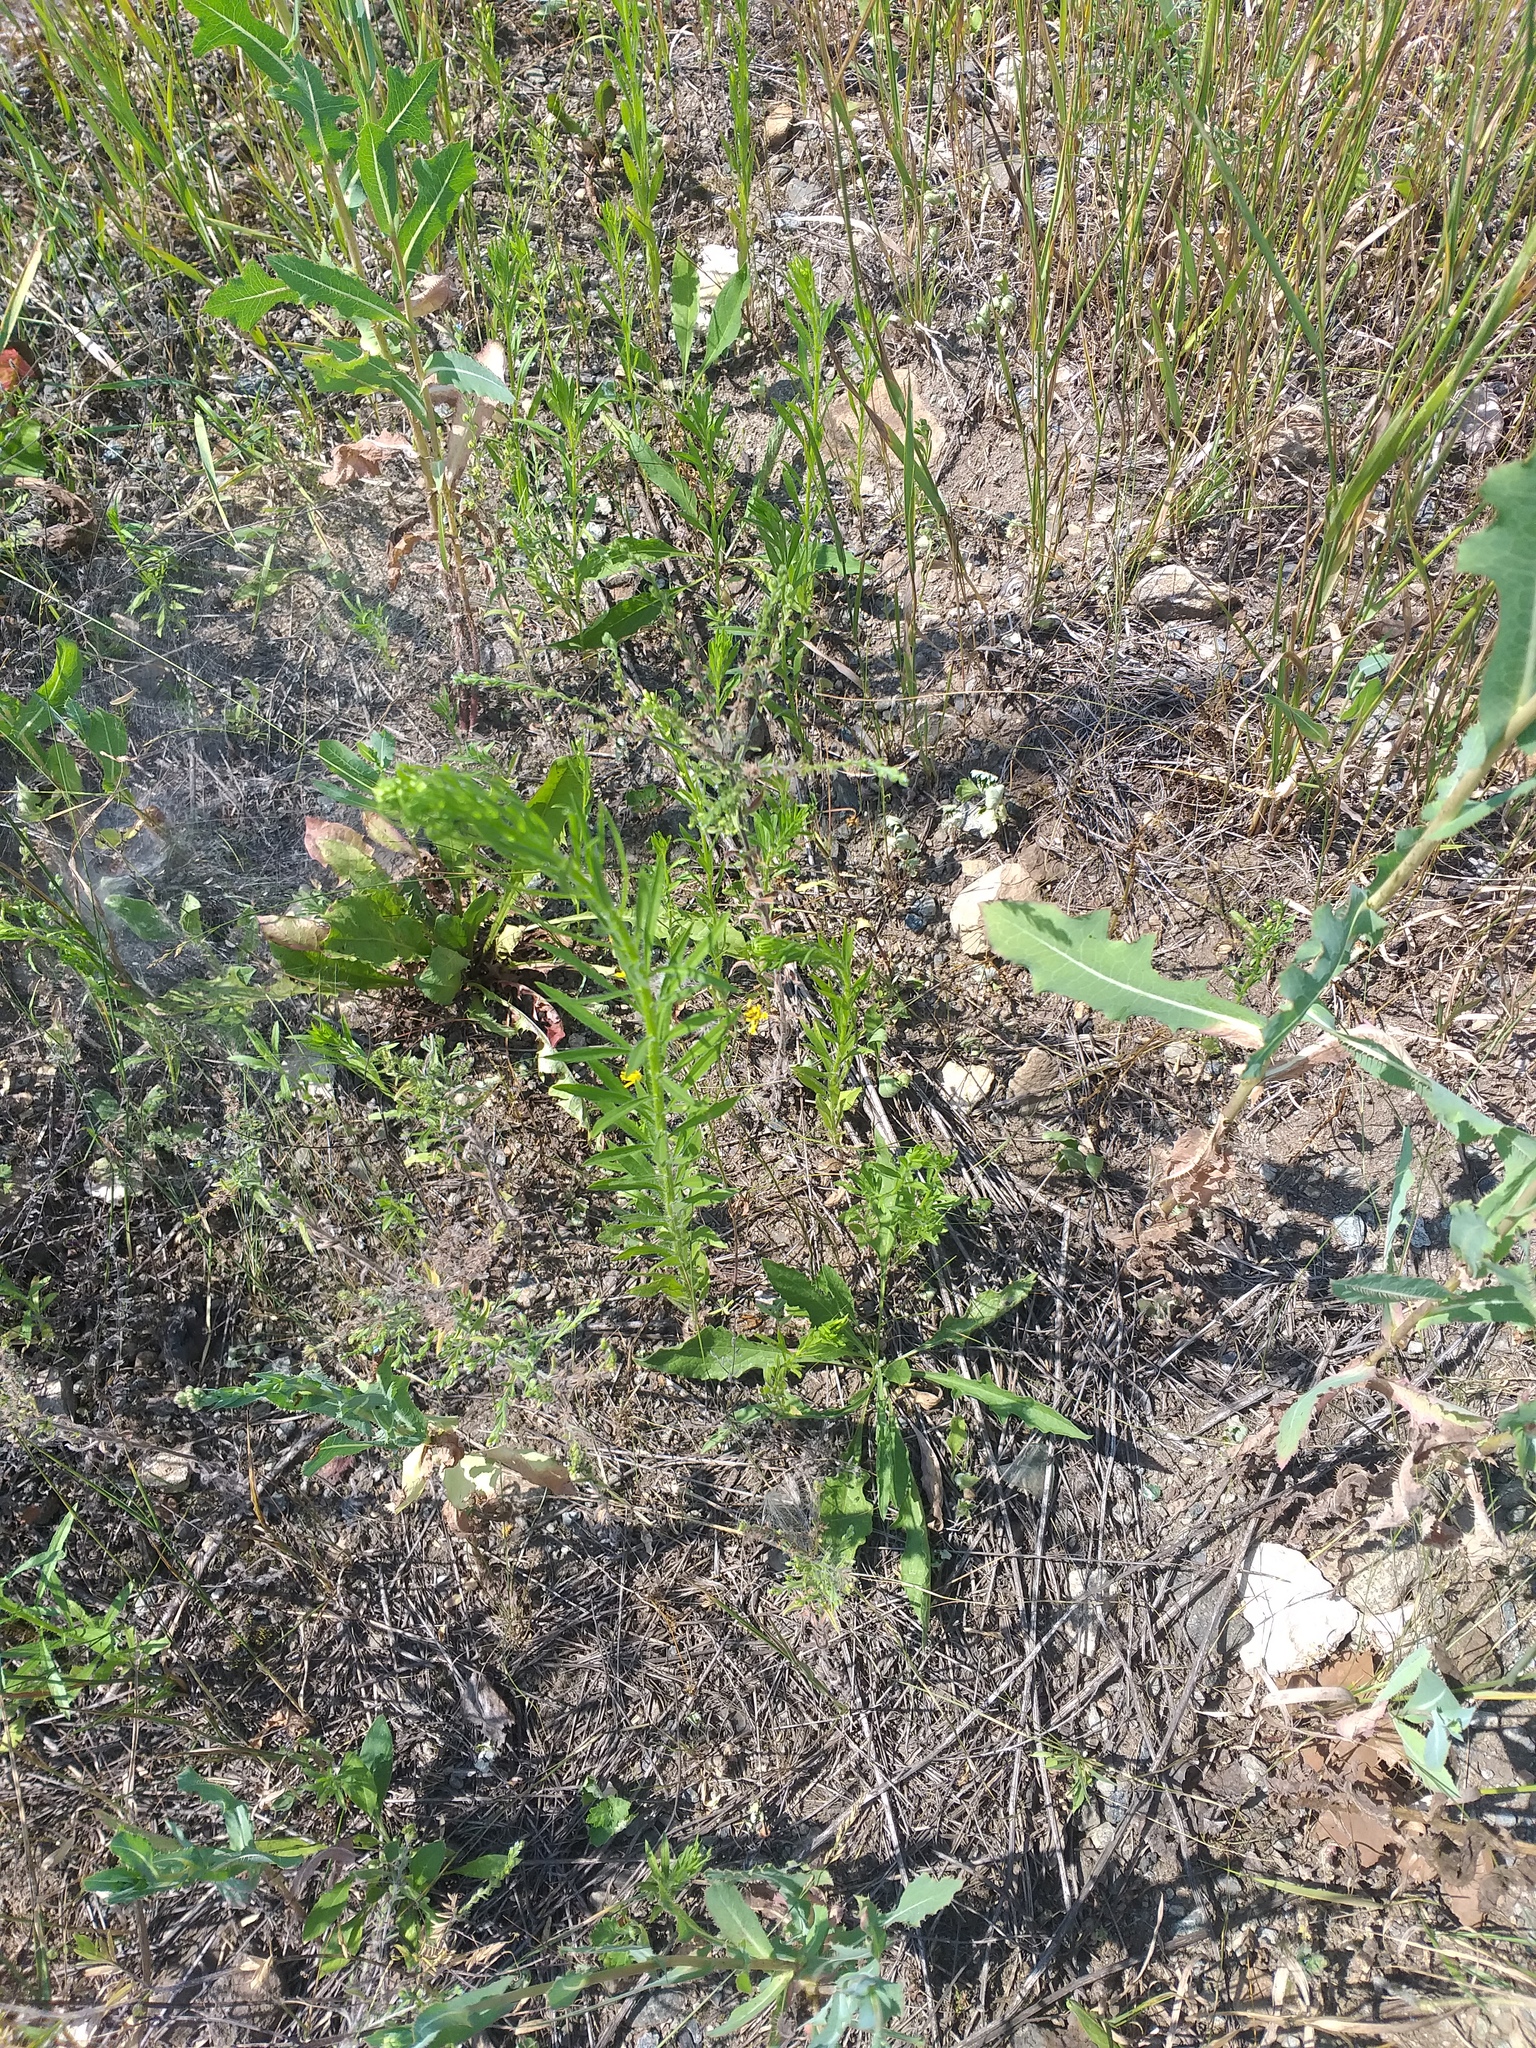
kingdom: Plantae
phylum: Tracheophyta
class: Magnoliopsida
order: Asterales
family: Asteraceae
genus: Erigeron
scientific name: Erigeron canadensis
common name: Canadian fleabane
